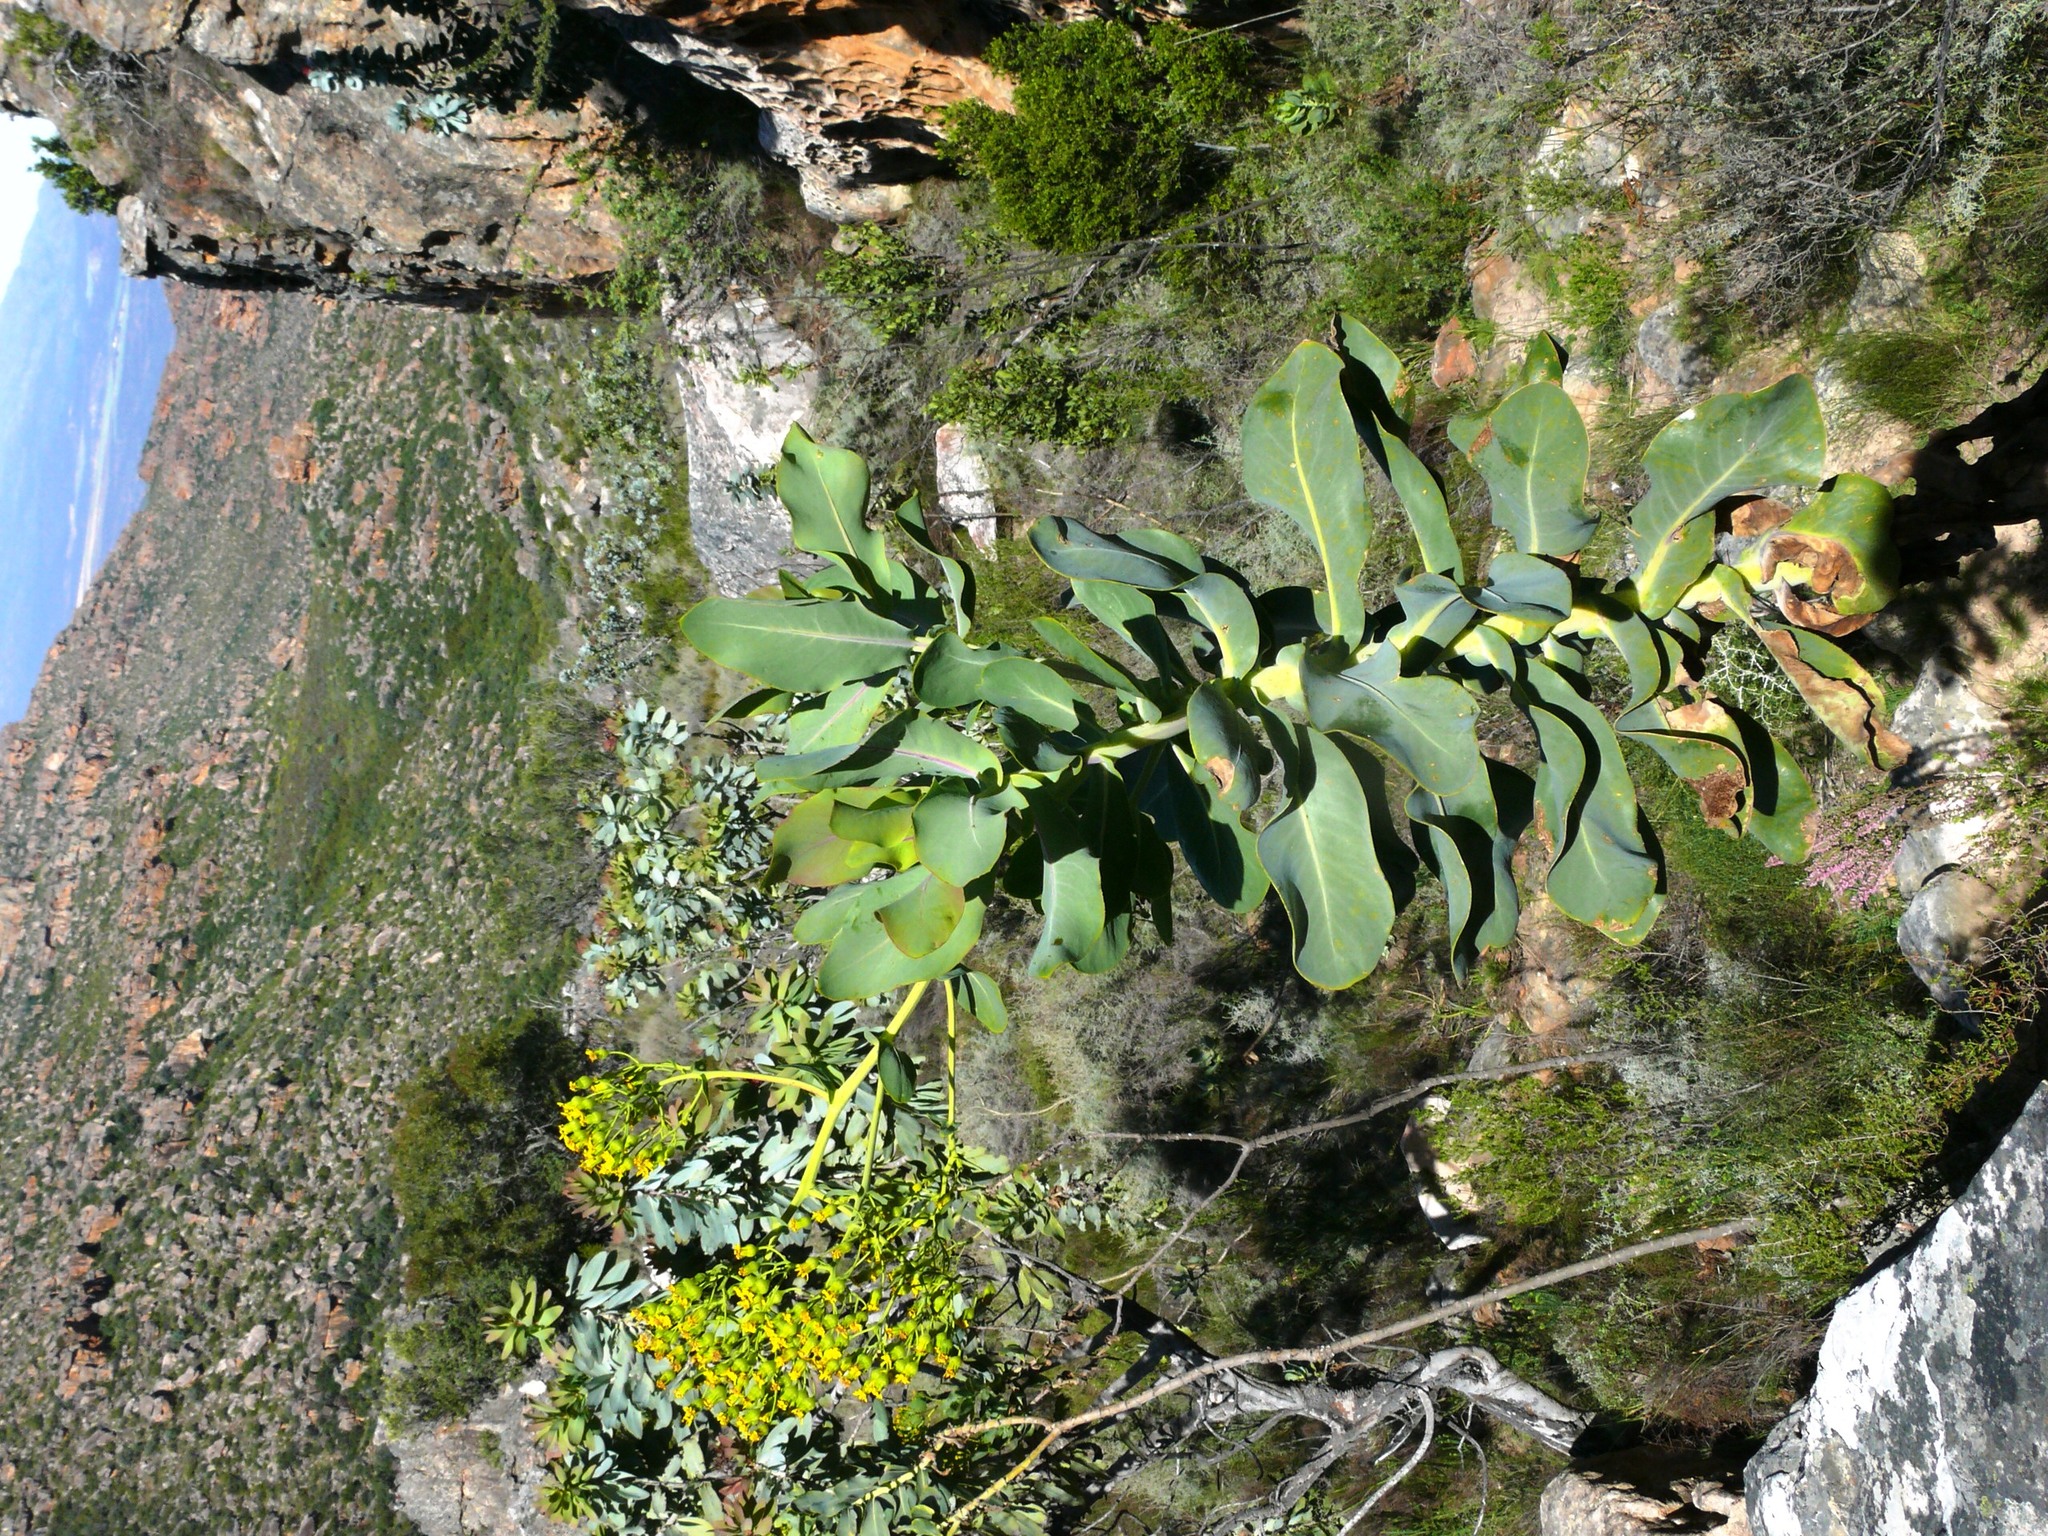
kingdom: Plantae
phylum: Tracheophyta
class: Magnoliopsida
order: Asterales
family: Asteraceae
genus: Othonna
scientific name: Othonna parviflora
